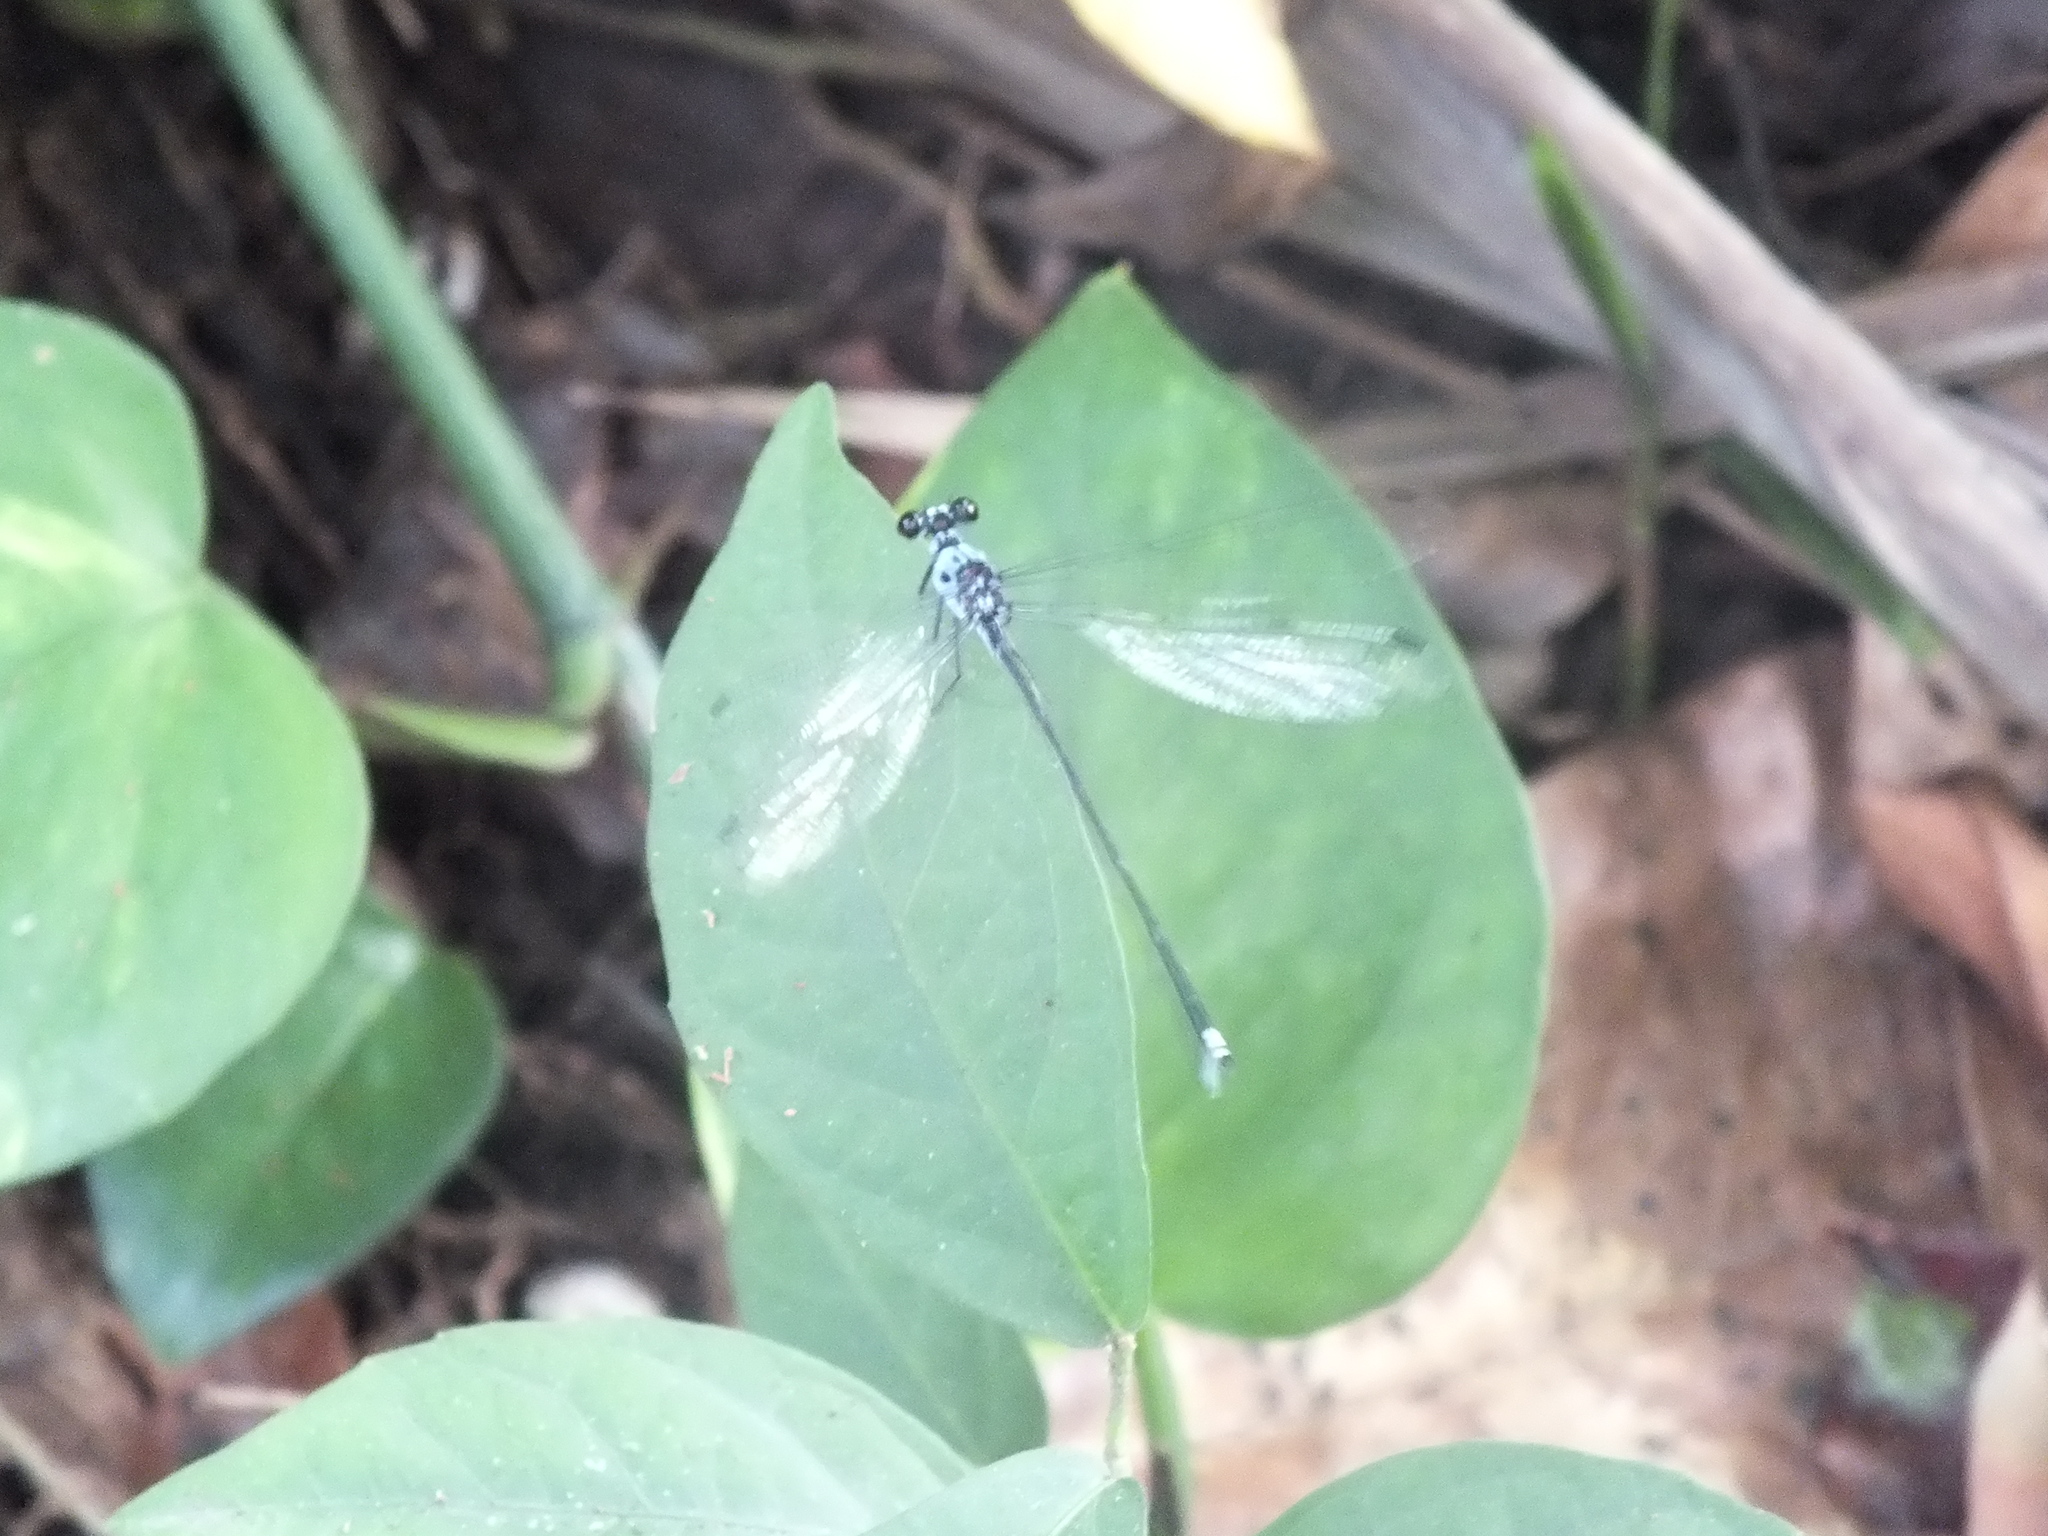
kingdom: Animalia
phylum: Arthropoda
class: Insecta
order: Odonata
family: Hypolestidae
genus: Hypolestes
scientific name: Hypolestes clara
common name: Jamaican hypolestes
